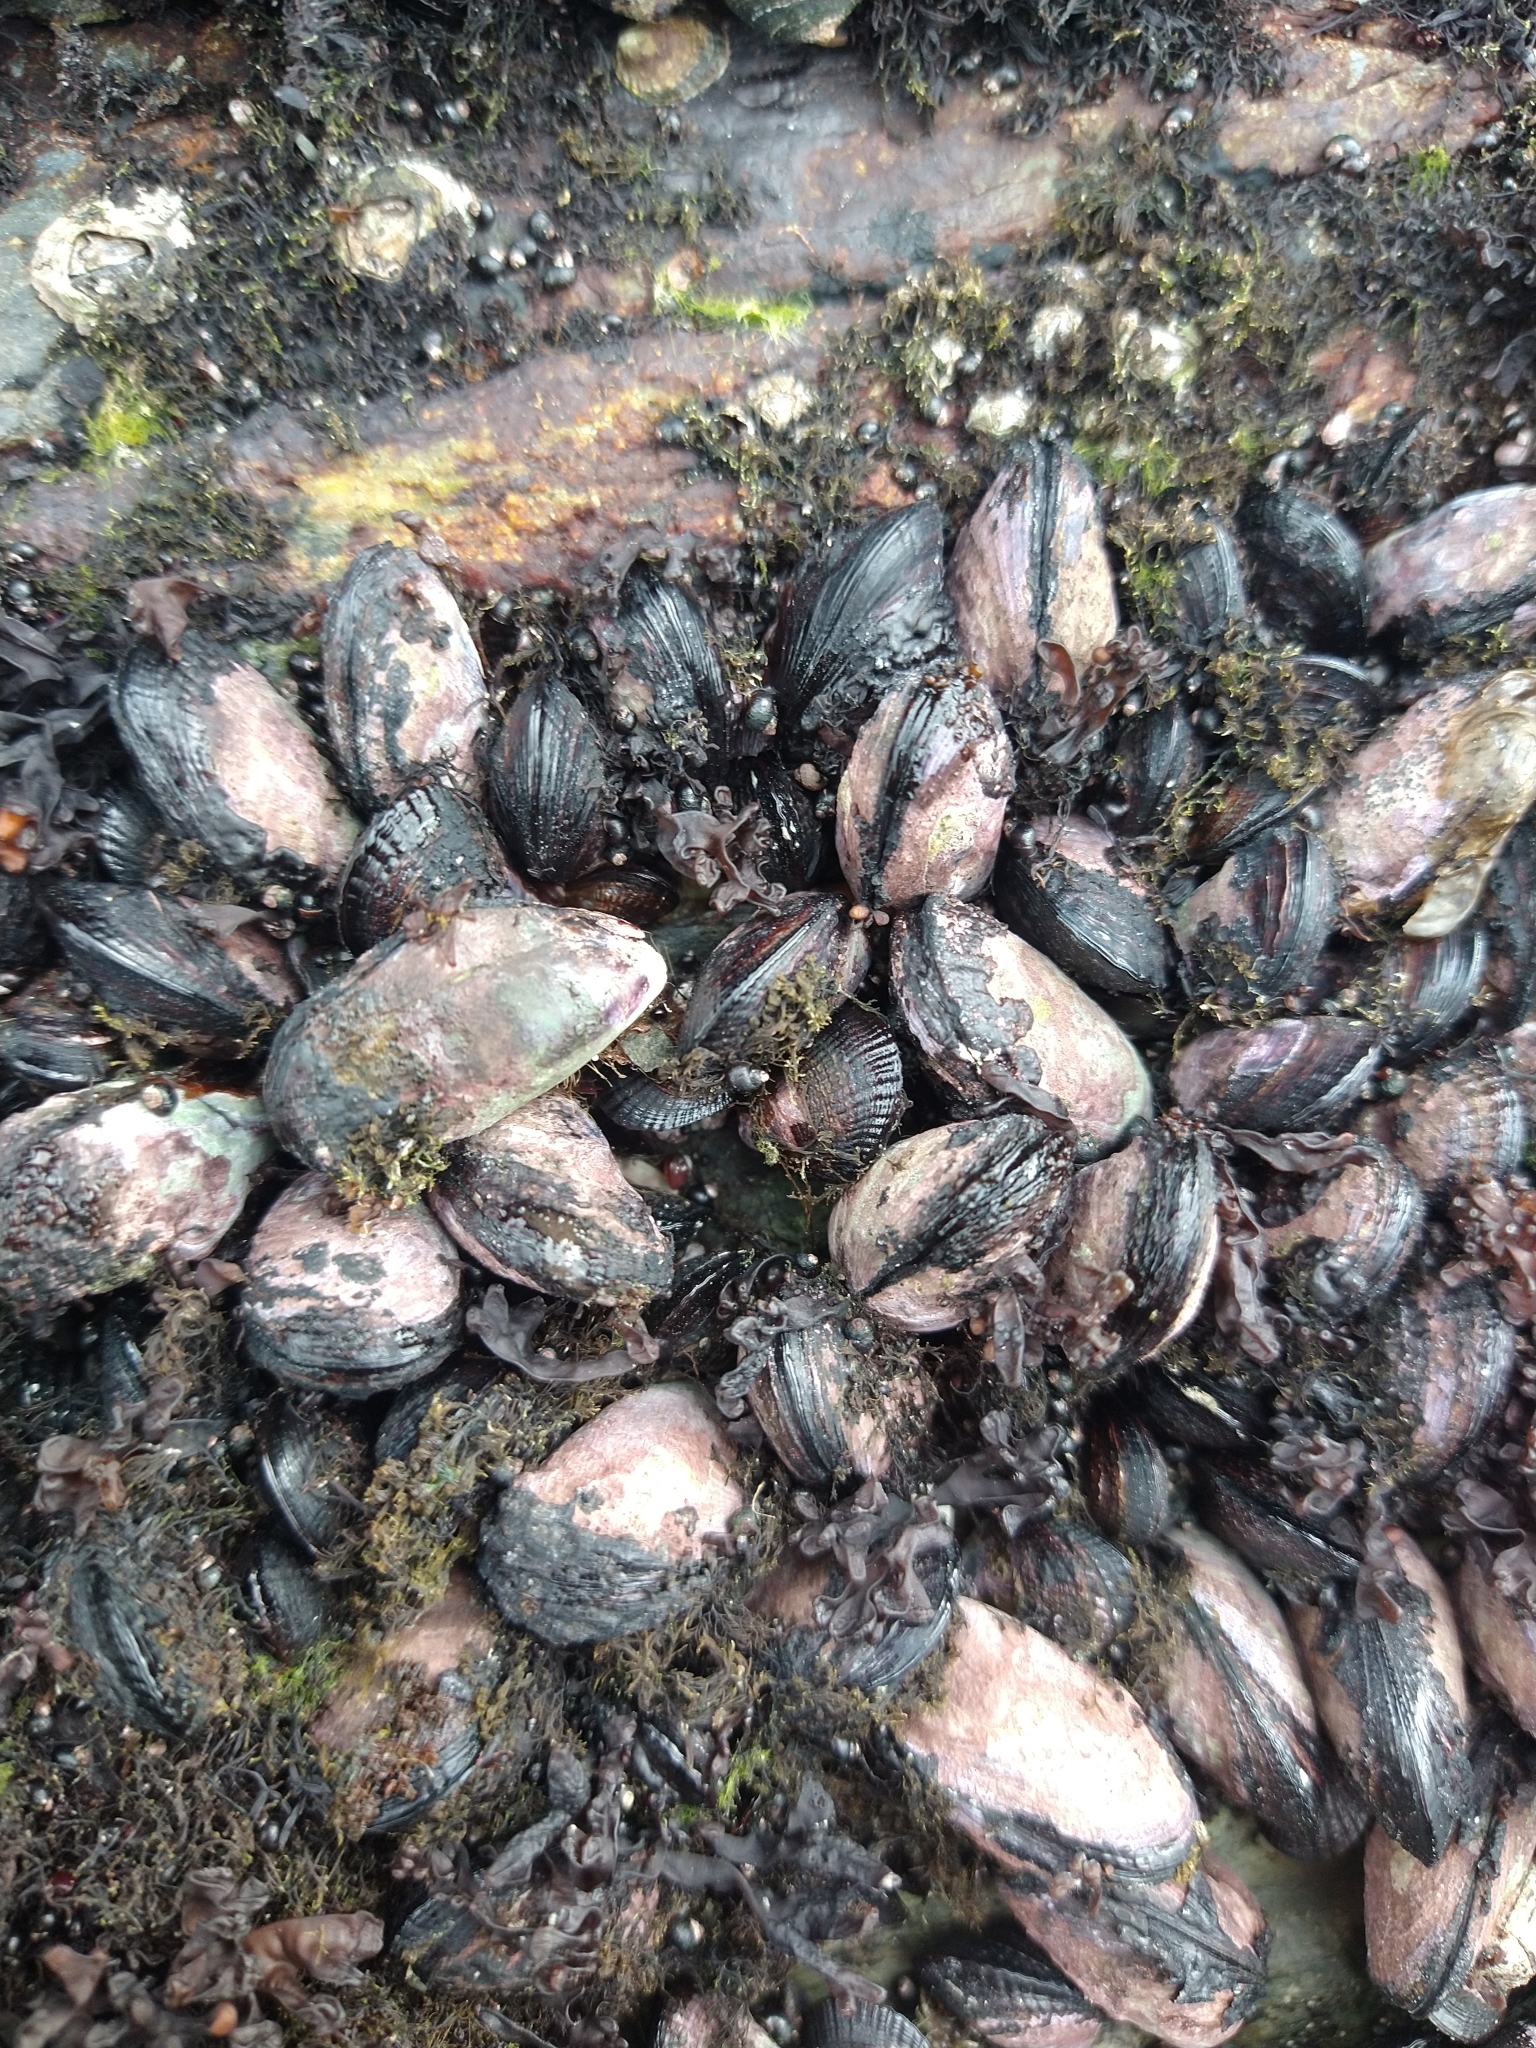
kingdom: Animalia
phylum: Mollusca
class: Bivalvia
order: Mytilida
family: Mytilidae
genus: Perumytilus
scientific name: Perumytilus purpuratus
